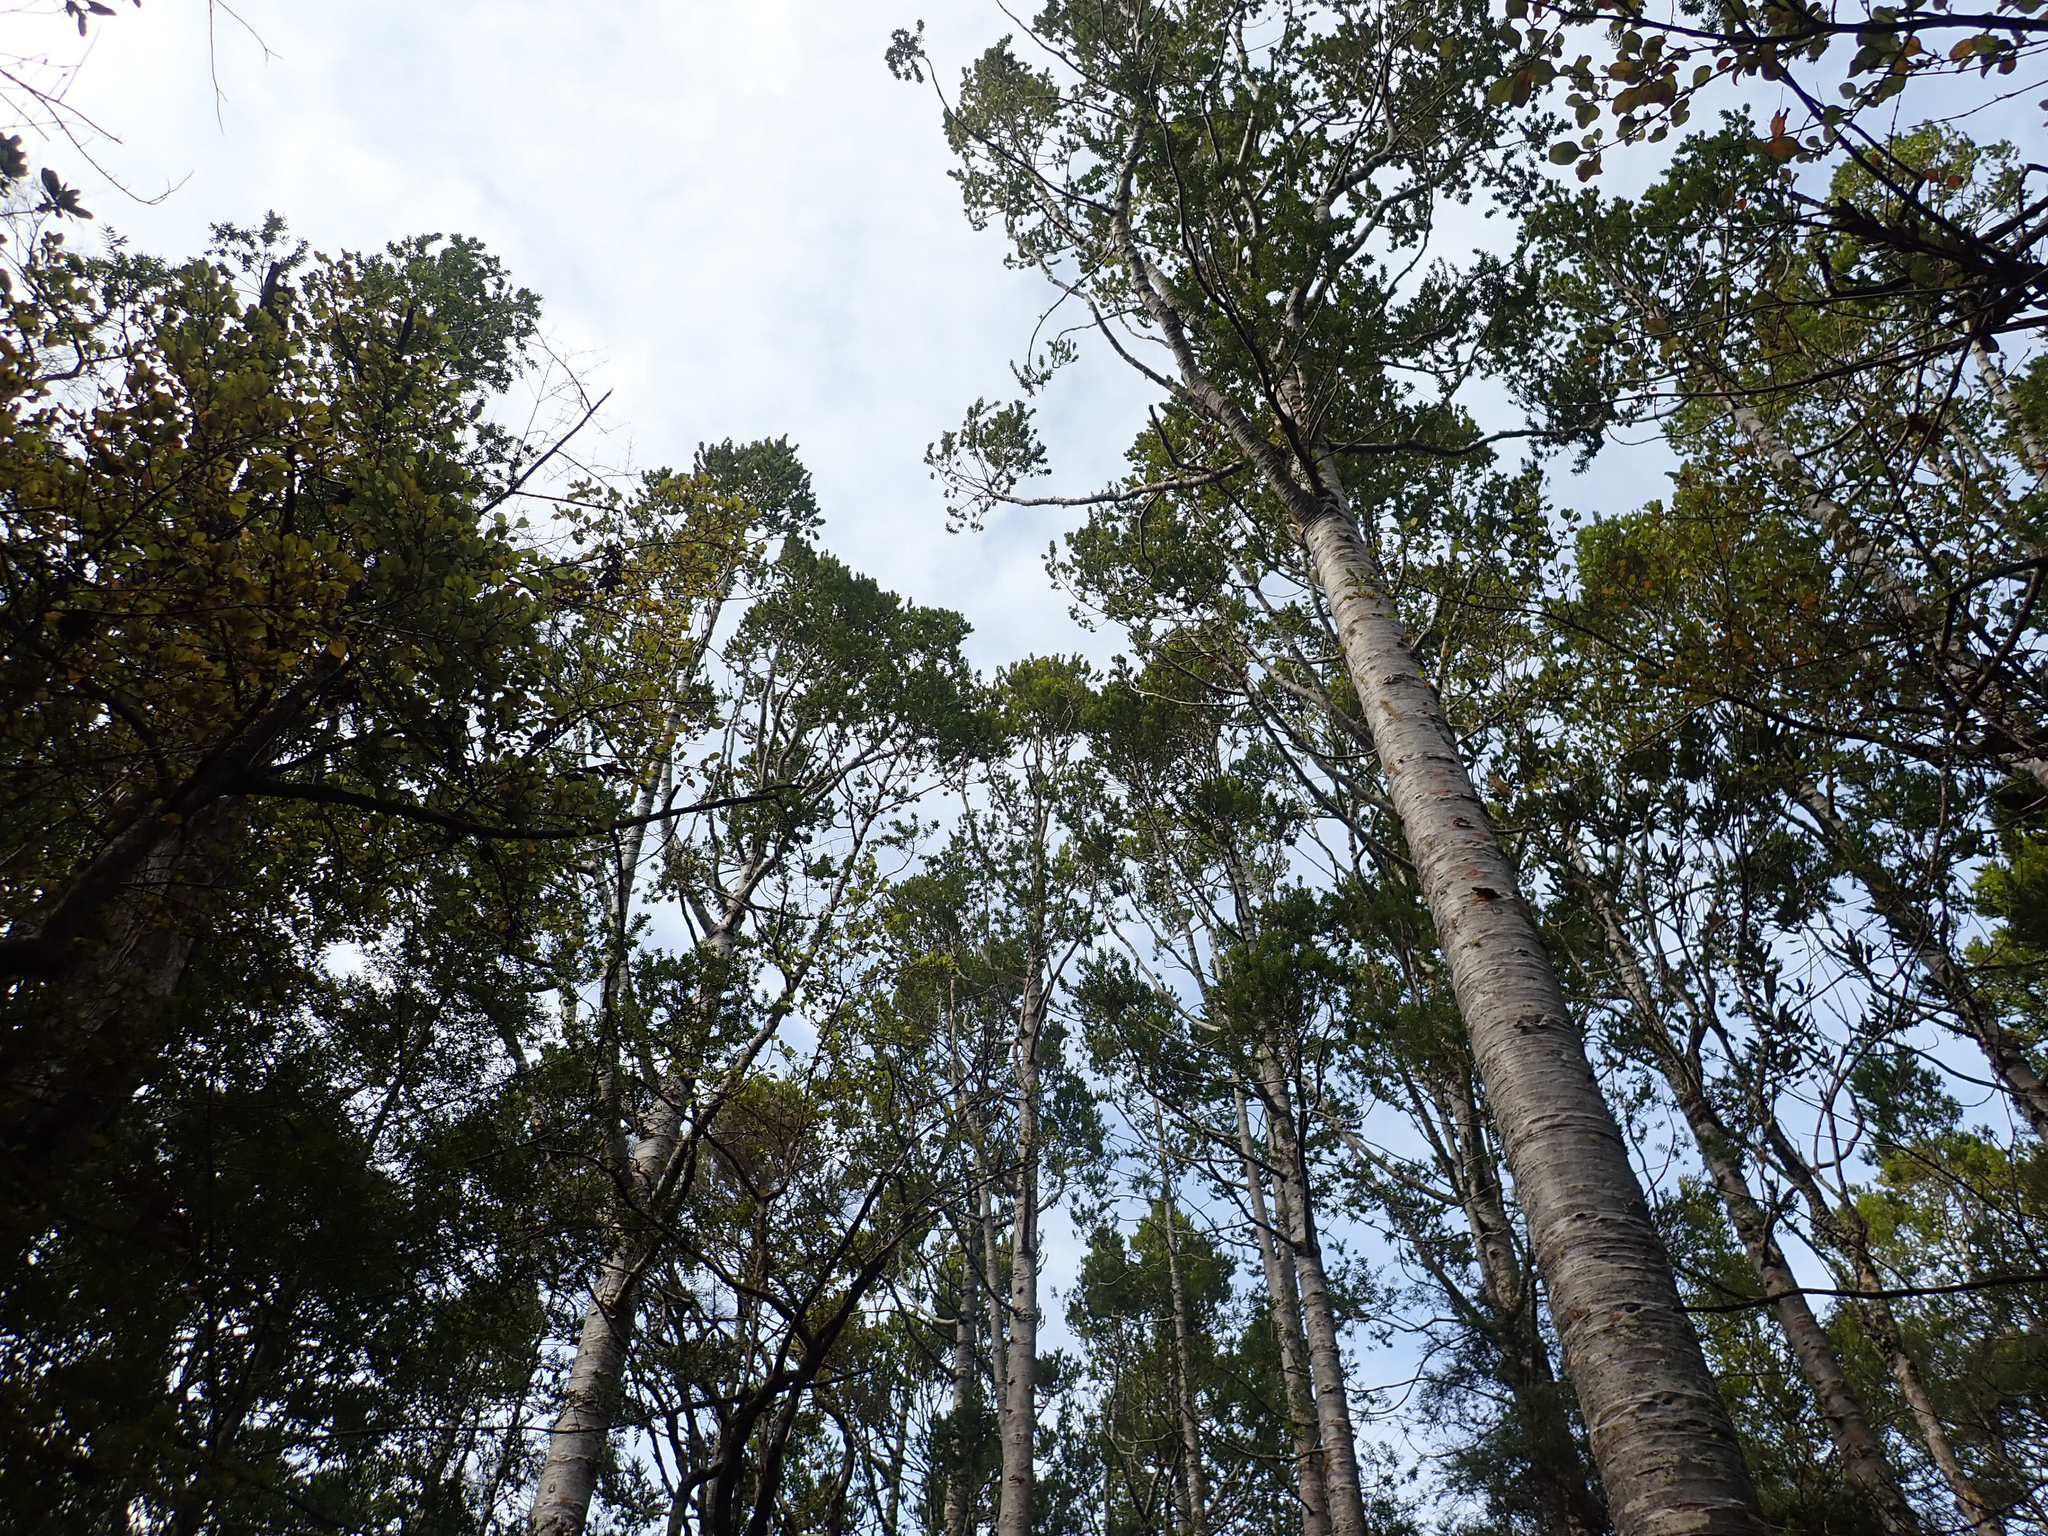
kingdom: Plantae
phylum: Tracheophyta
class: Pinopsida
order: Pinales
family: Araucariaceae
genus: Agathis
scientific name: Agathis australis
